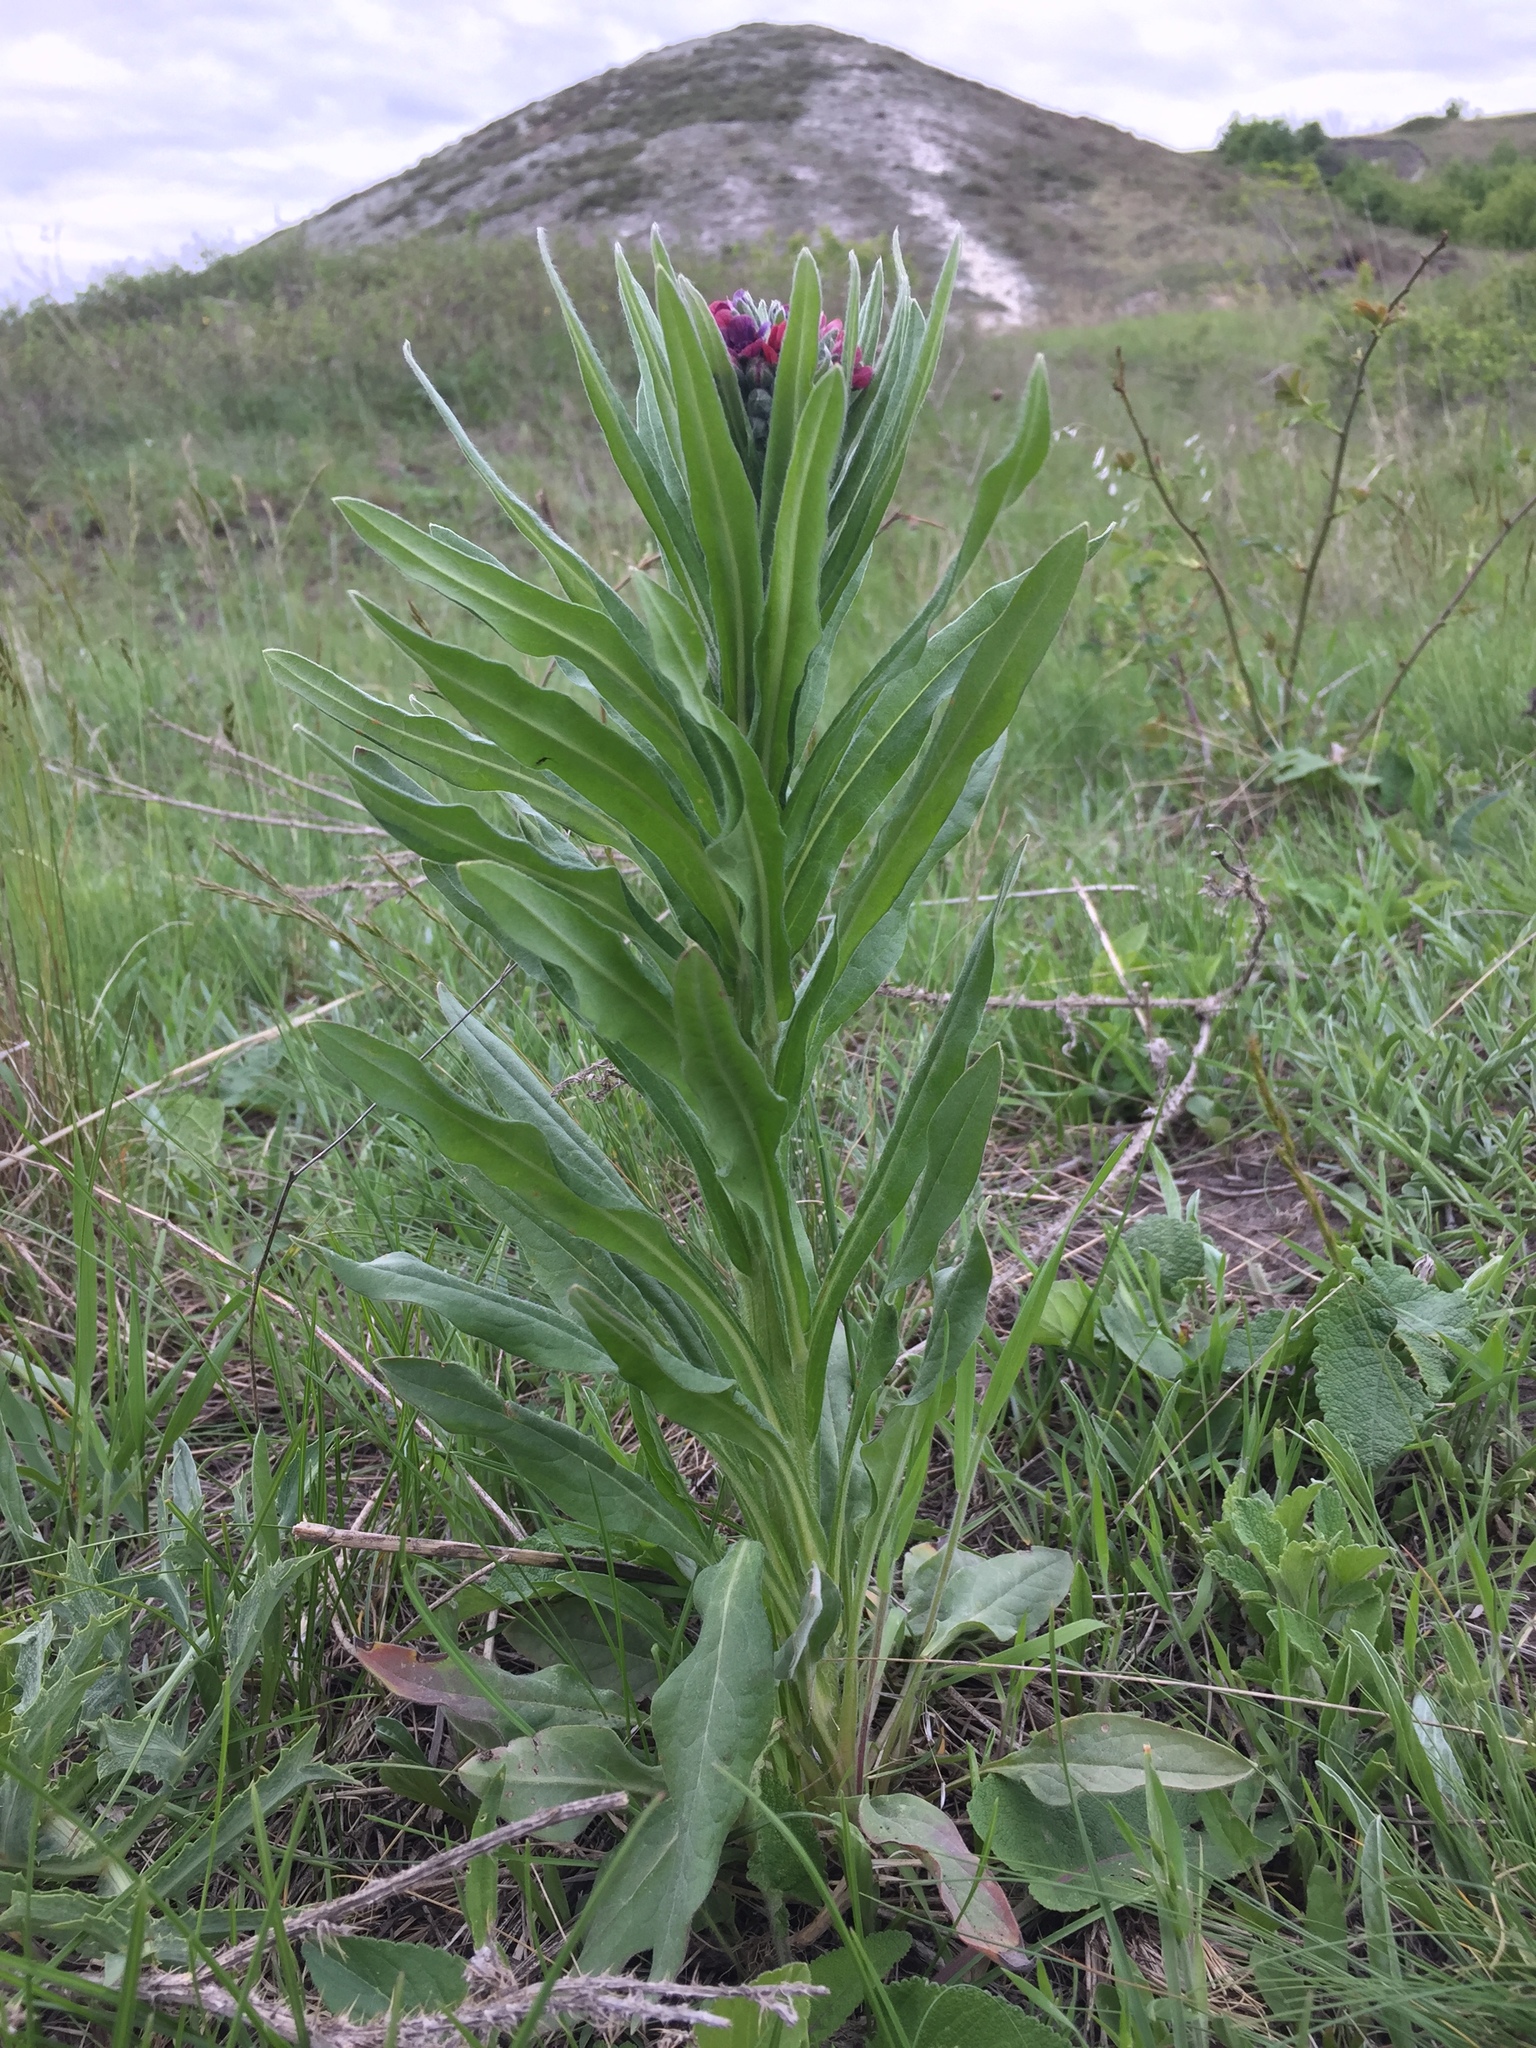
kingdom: Plantae
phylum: Tracheophyta
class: Magnoliopsida
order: Boraginales
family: Boraginaceae
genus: Cynoglossum
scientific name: Cynoglossum officinale
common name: Hound's-tongue
